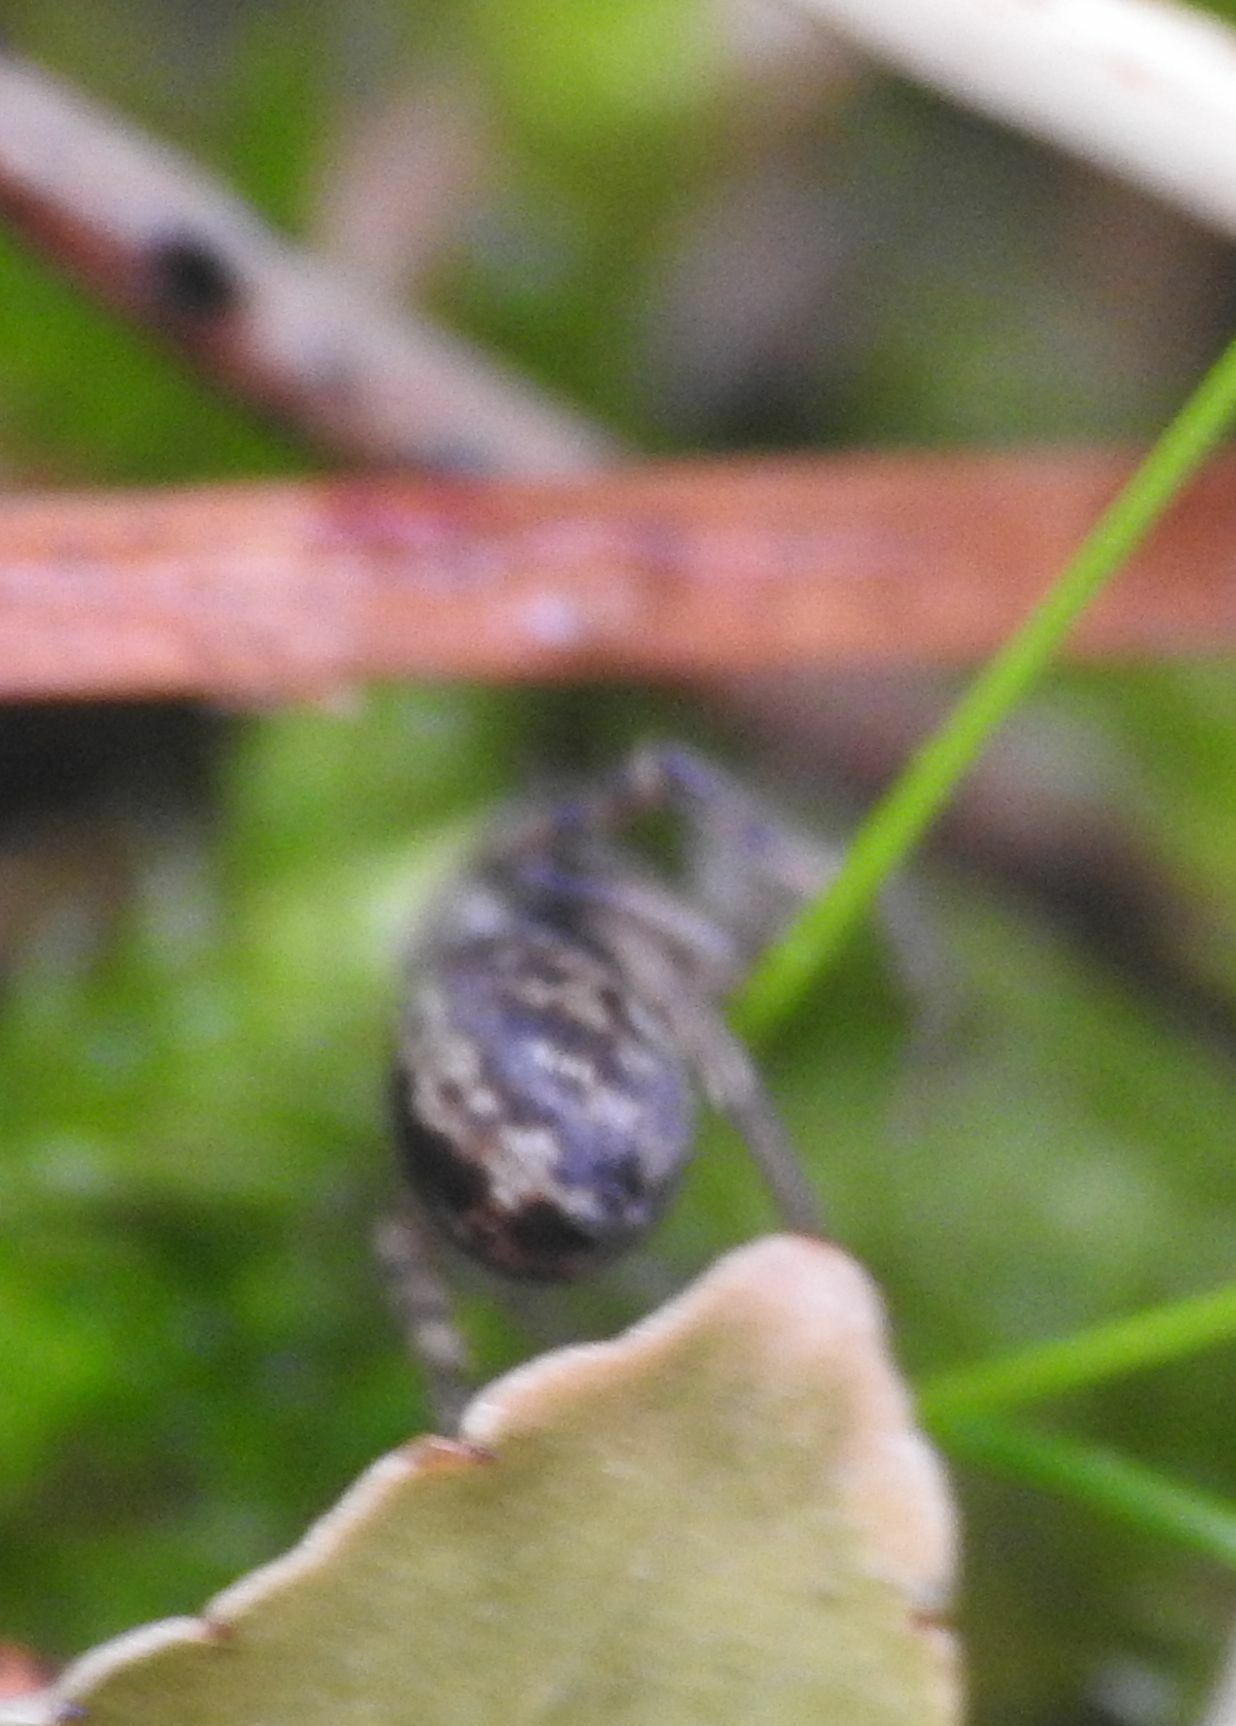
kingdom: Animalia
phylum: Arthropoda
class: Arachnida
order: Araneae
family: Salticidae
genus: Saitis
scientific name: Saitis barbipes
